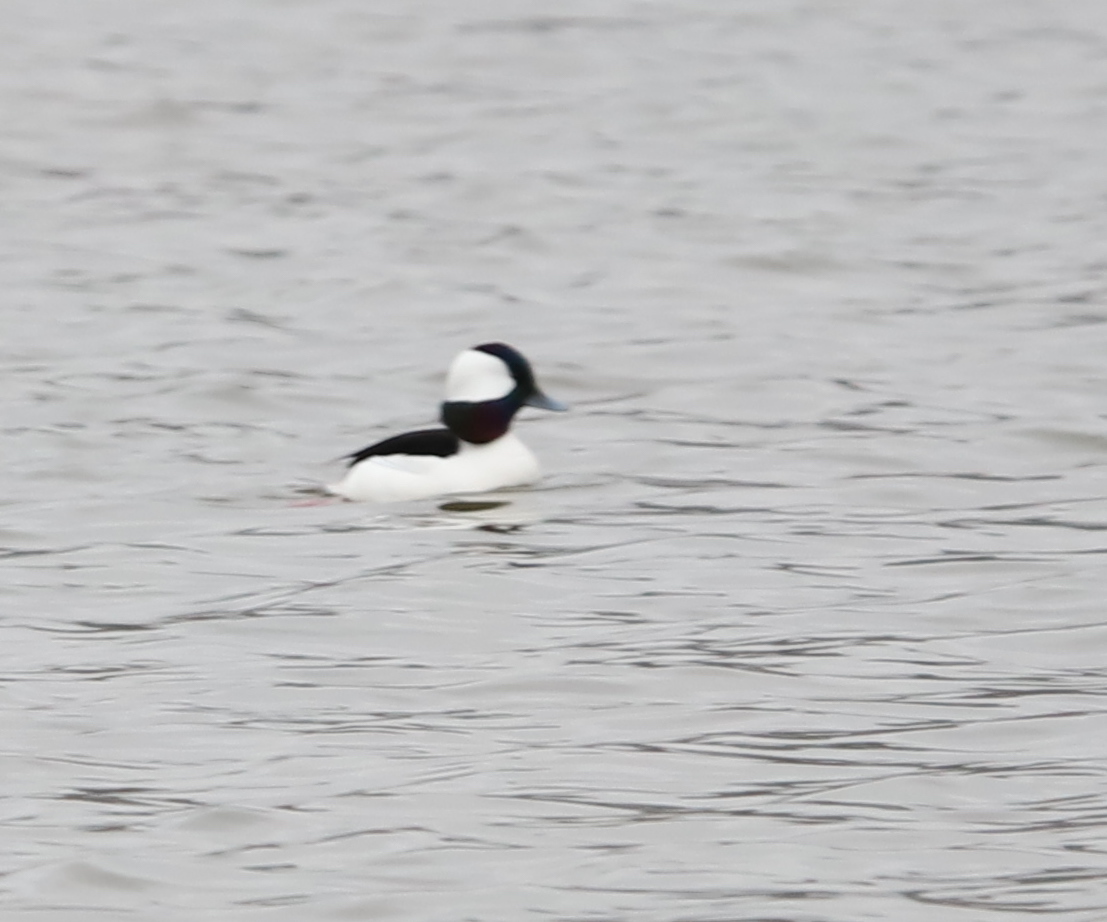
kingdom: Animalia
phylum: Chordata
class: Aves
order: Anseriformes
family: Anatidae
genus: Bucephala
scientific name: Bucephala albeola
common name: Bufflehead
